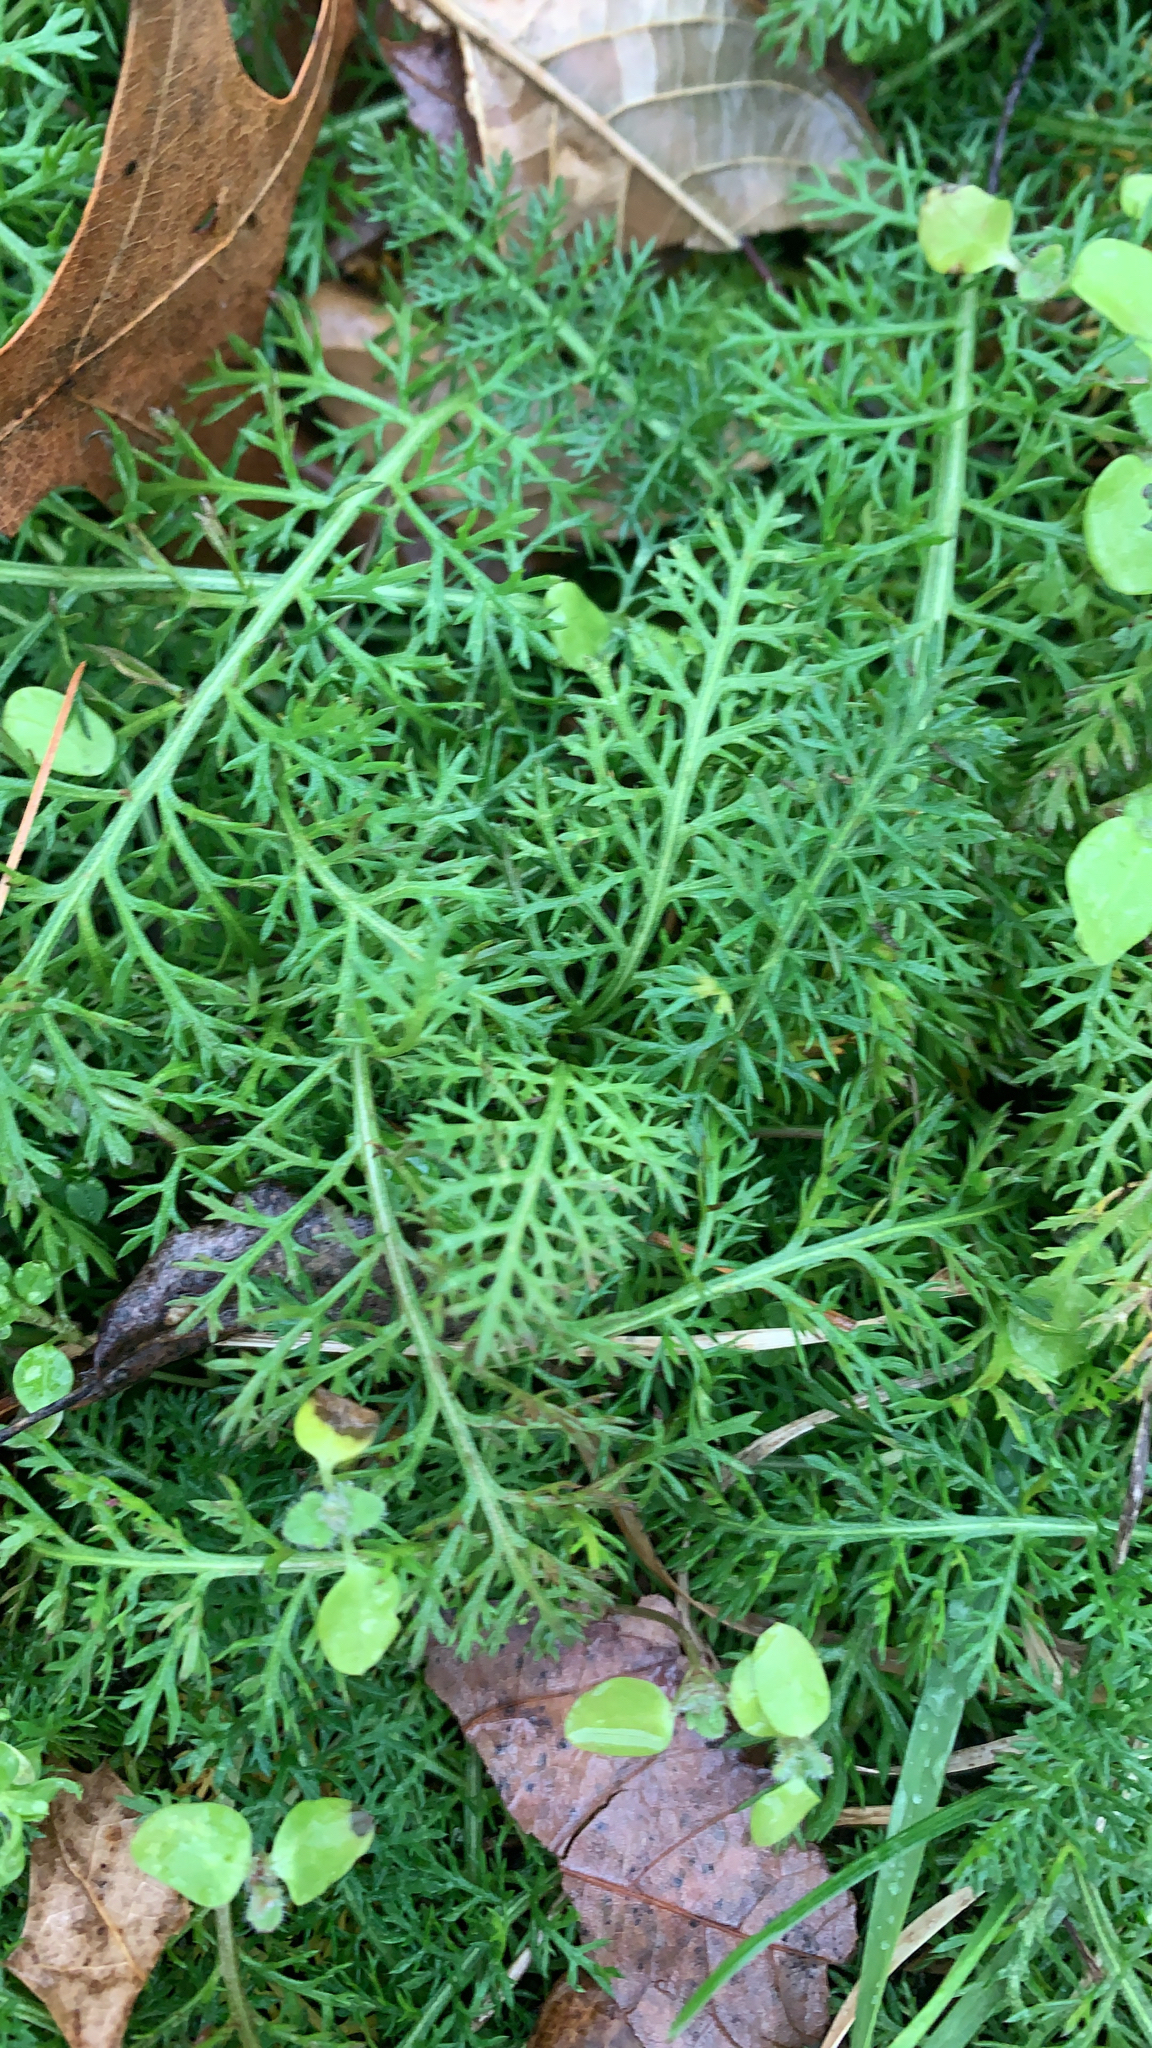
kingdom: Plantae
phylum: Tracheophyta
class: Magnoliopsida
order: Asterales
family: Asteraceae
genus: Achillea
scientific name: Achillea millefolium
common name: Yarrow
